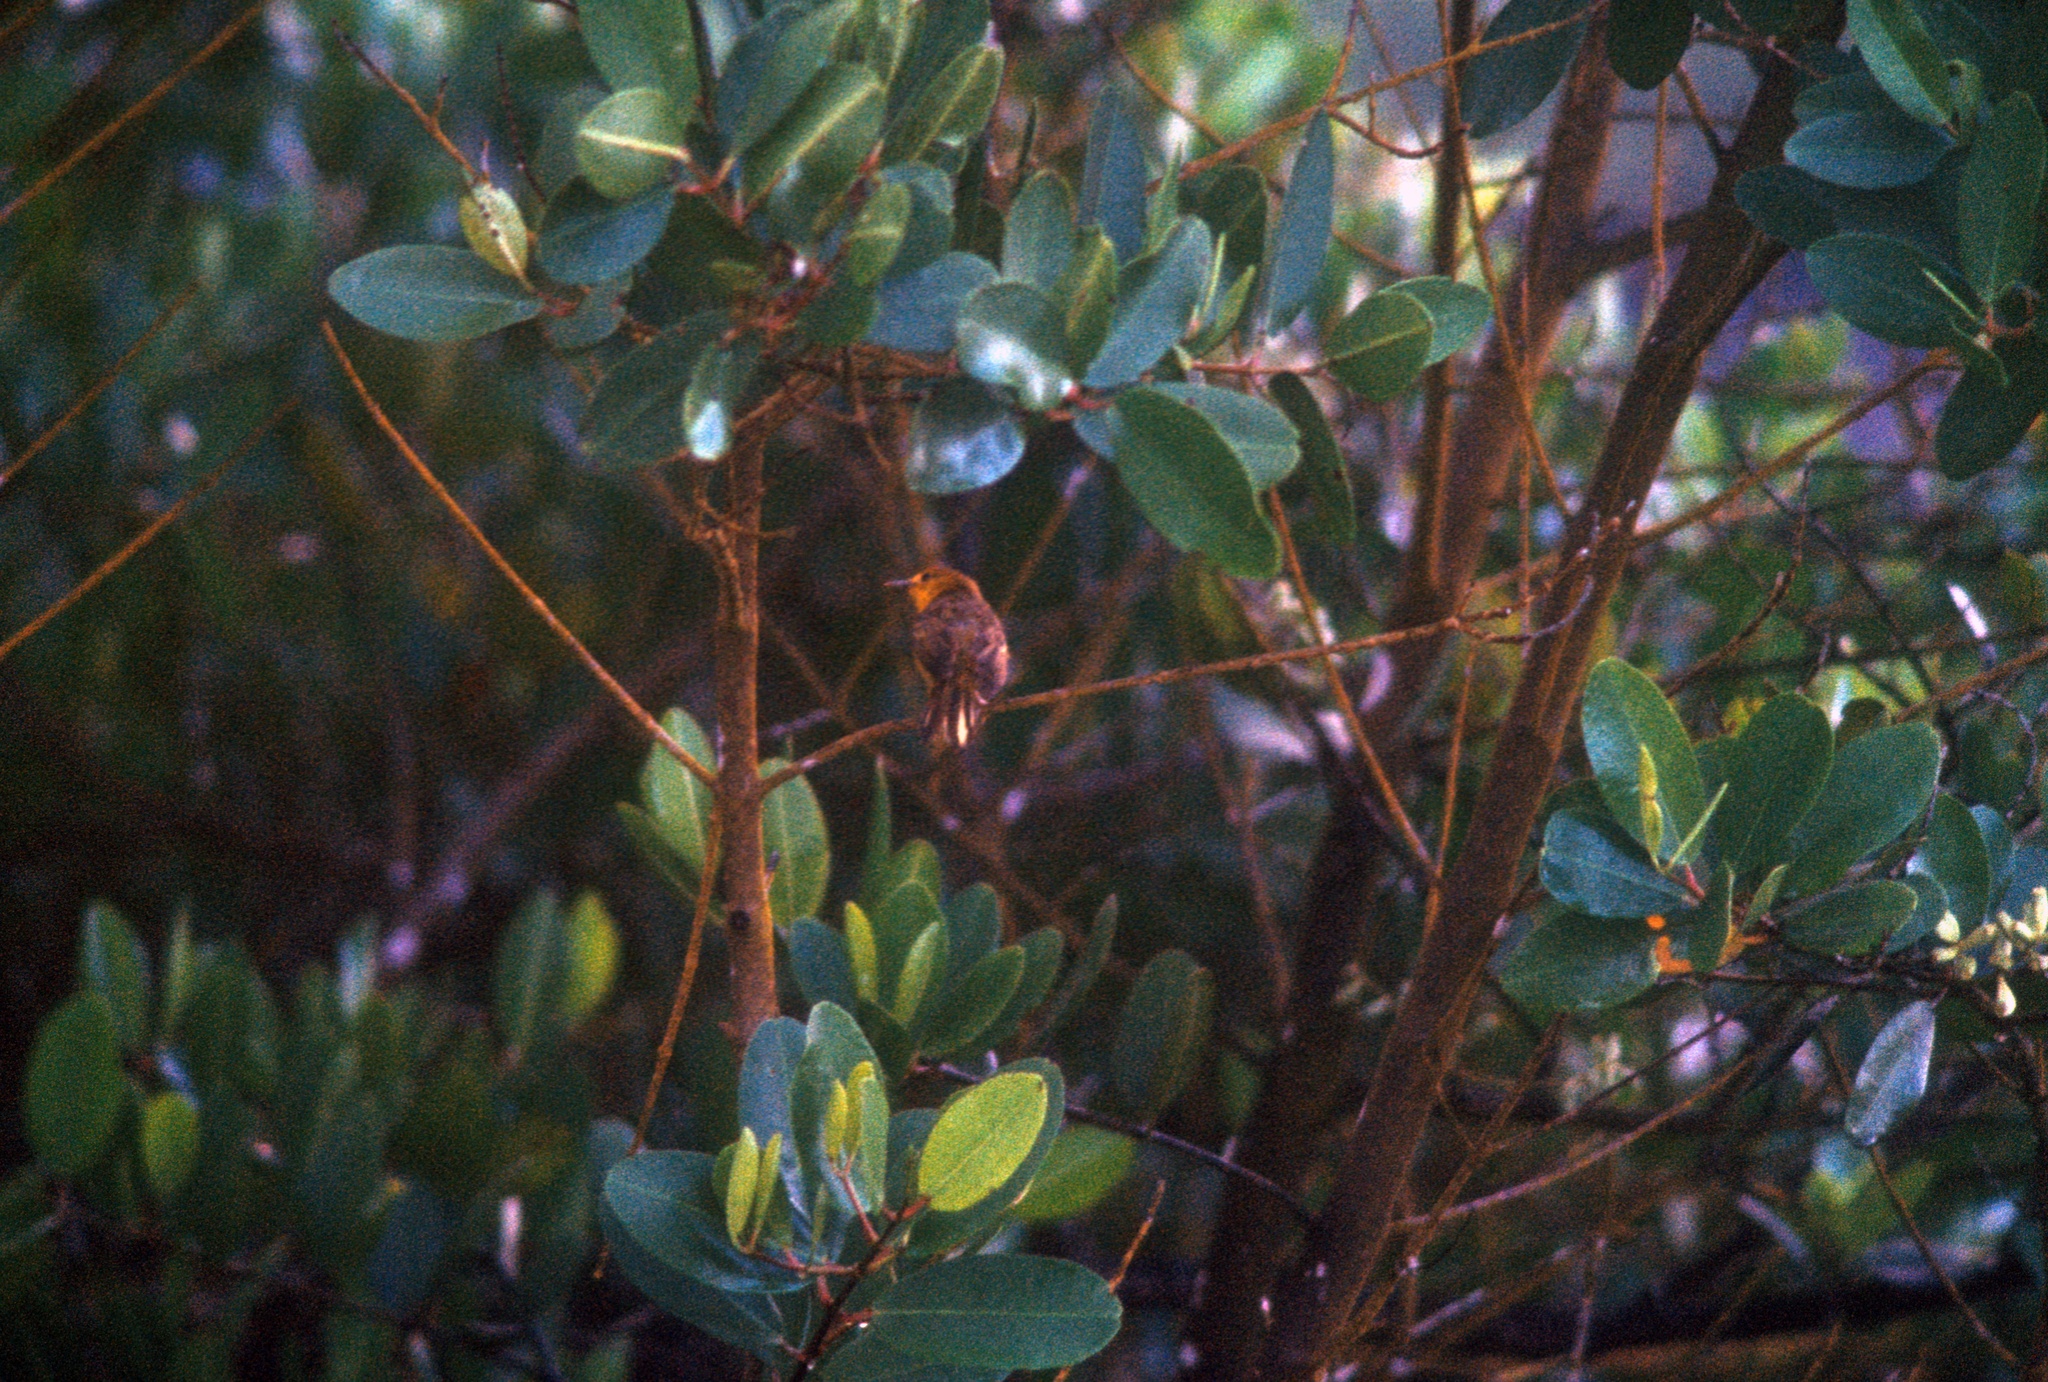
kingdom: Animalia
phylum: Chordata
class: Aves
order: Passeriformes
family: Parulidae
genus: Setophaga
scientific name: Setophaga petechia
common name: Yellow warbler
